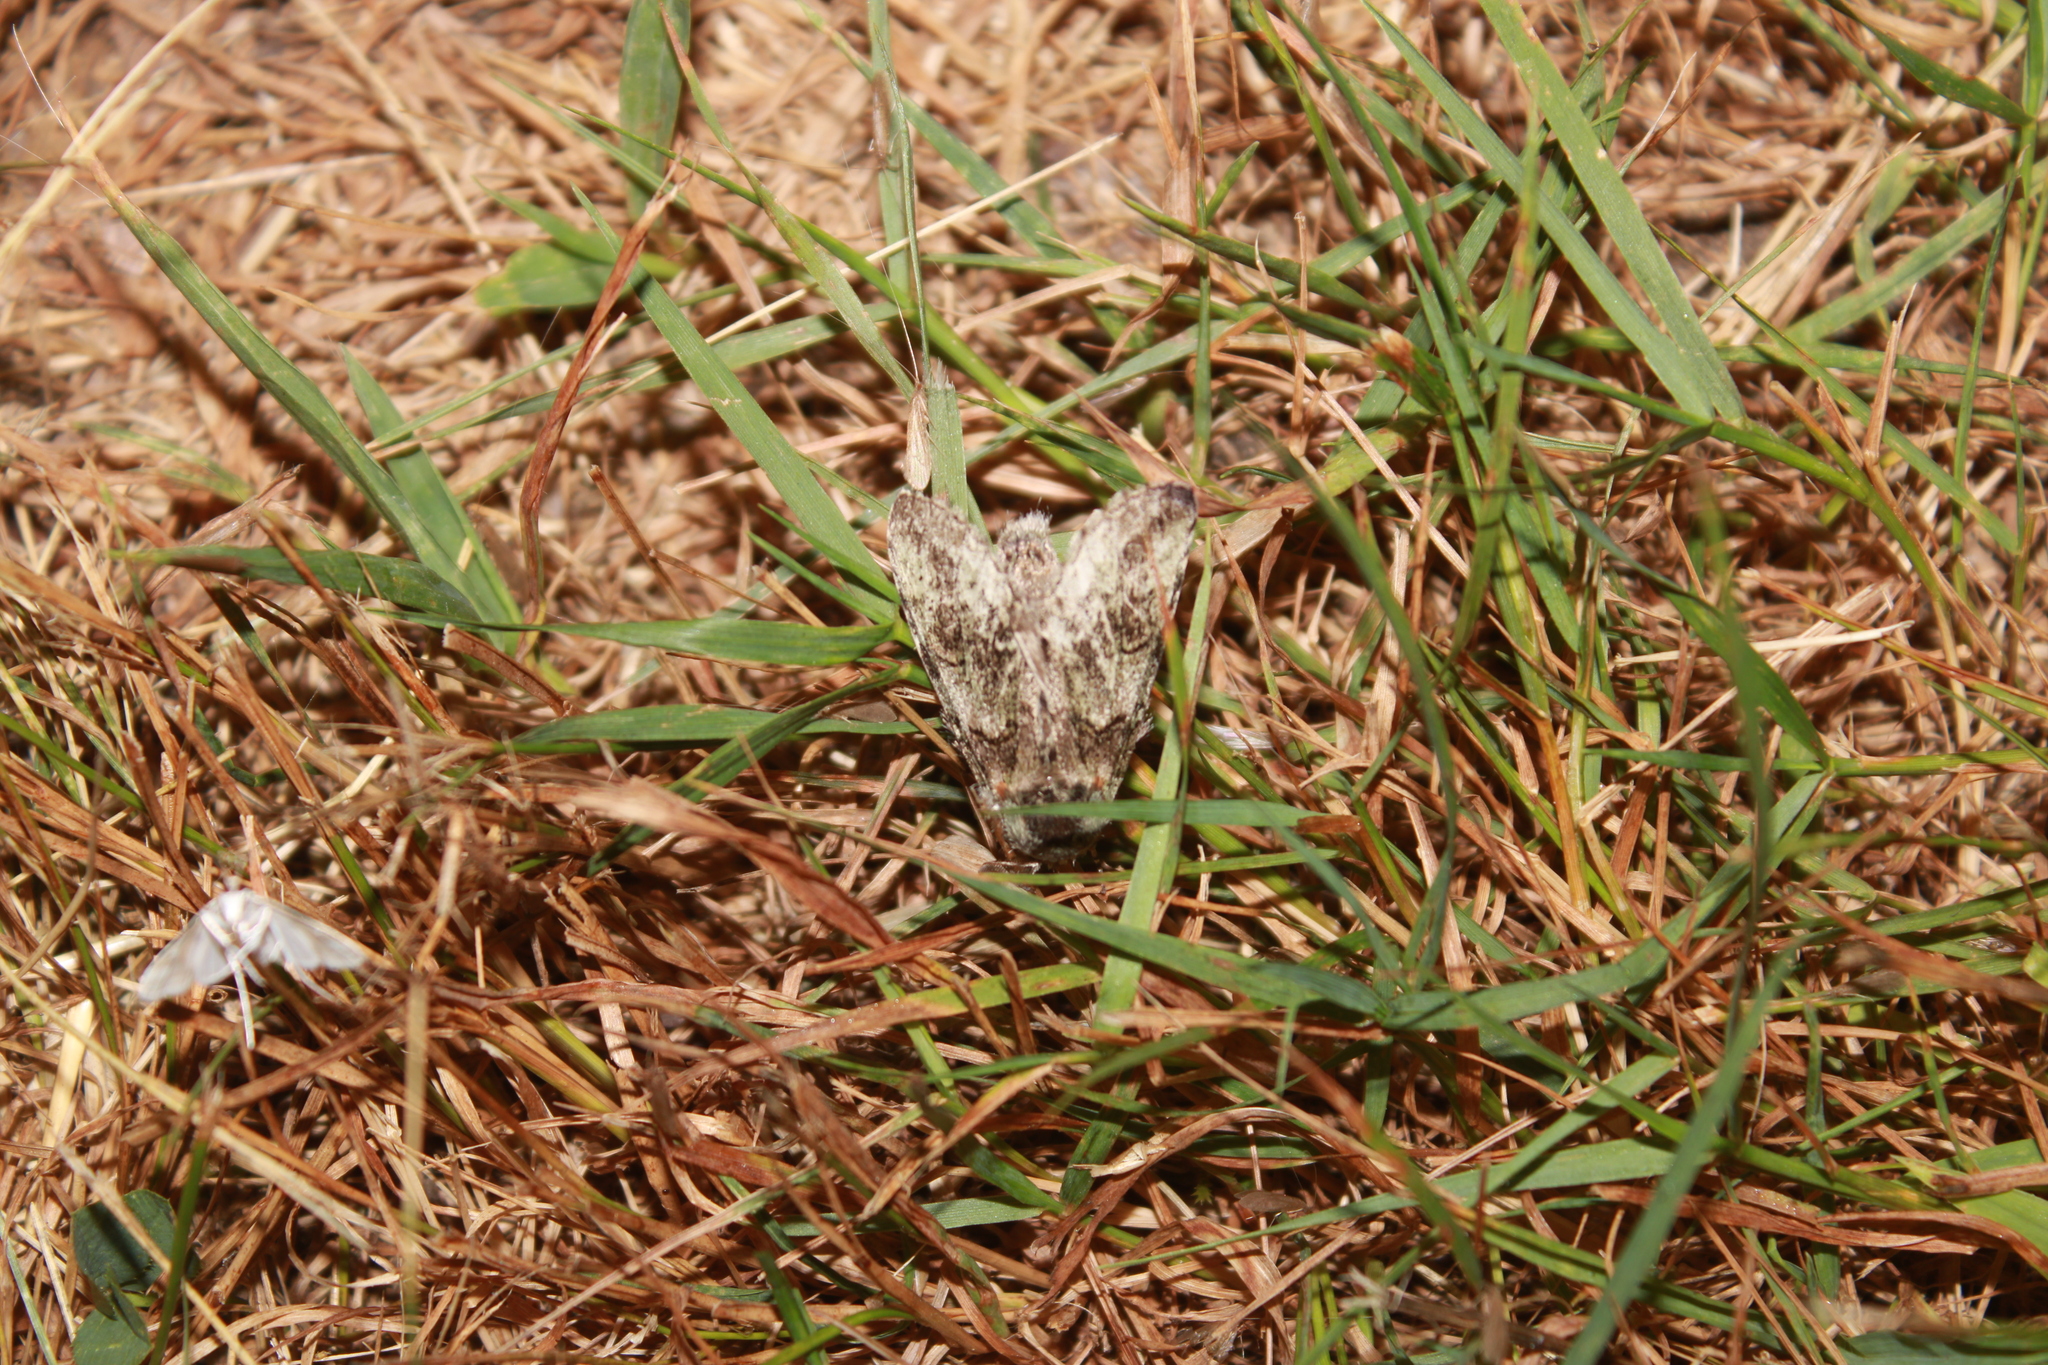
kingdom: Animalia
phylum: Arthropoda
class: Insecta
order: Lepidoptera
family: Notodontidae
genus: Macrurocampa
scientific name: Macrurocampa marthesia
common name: Mottled prominent
